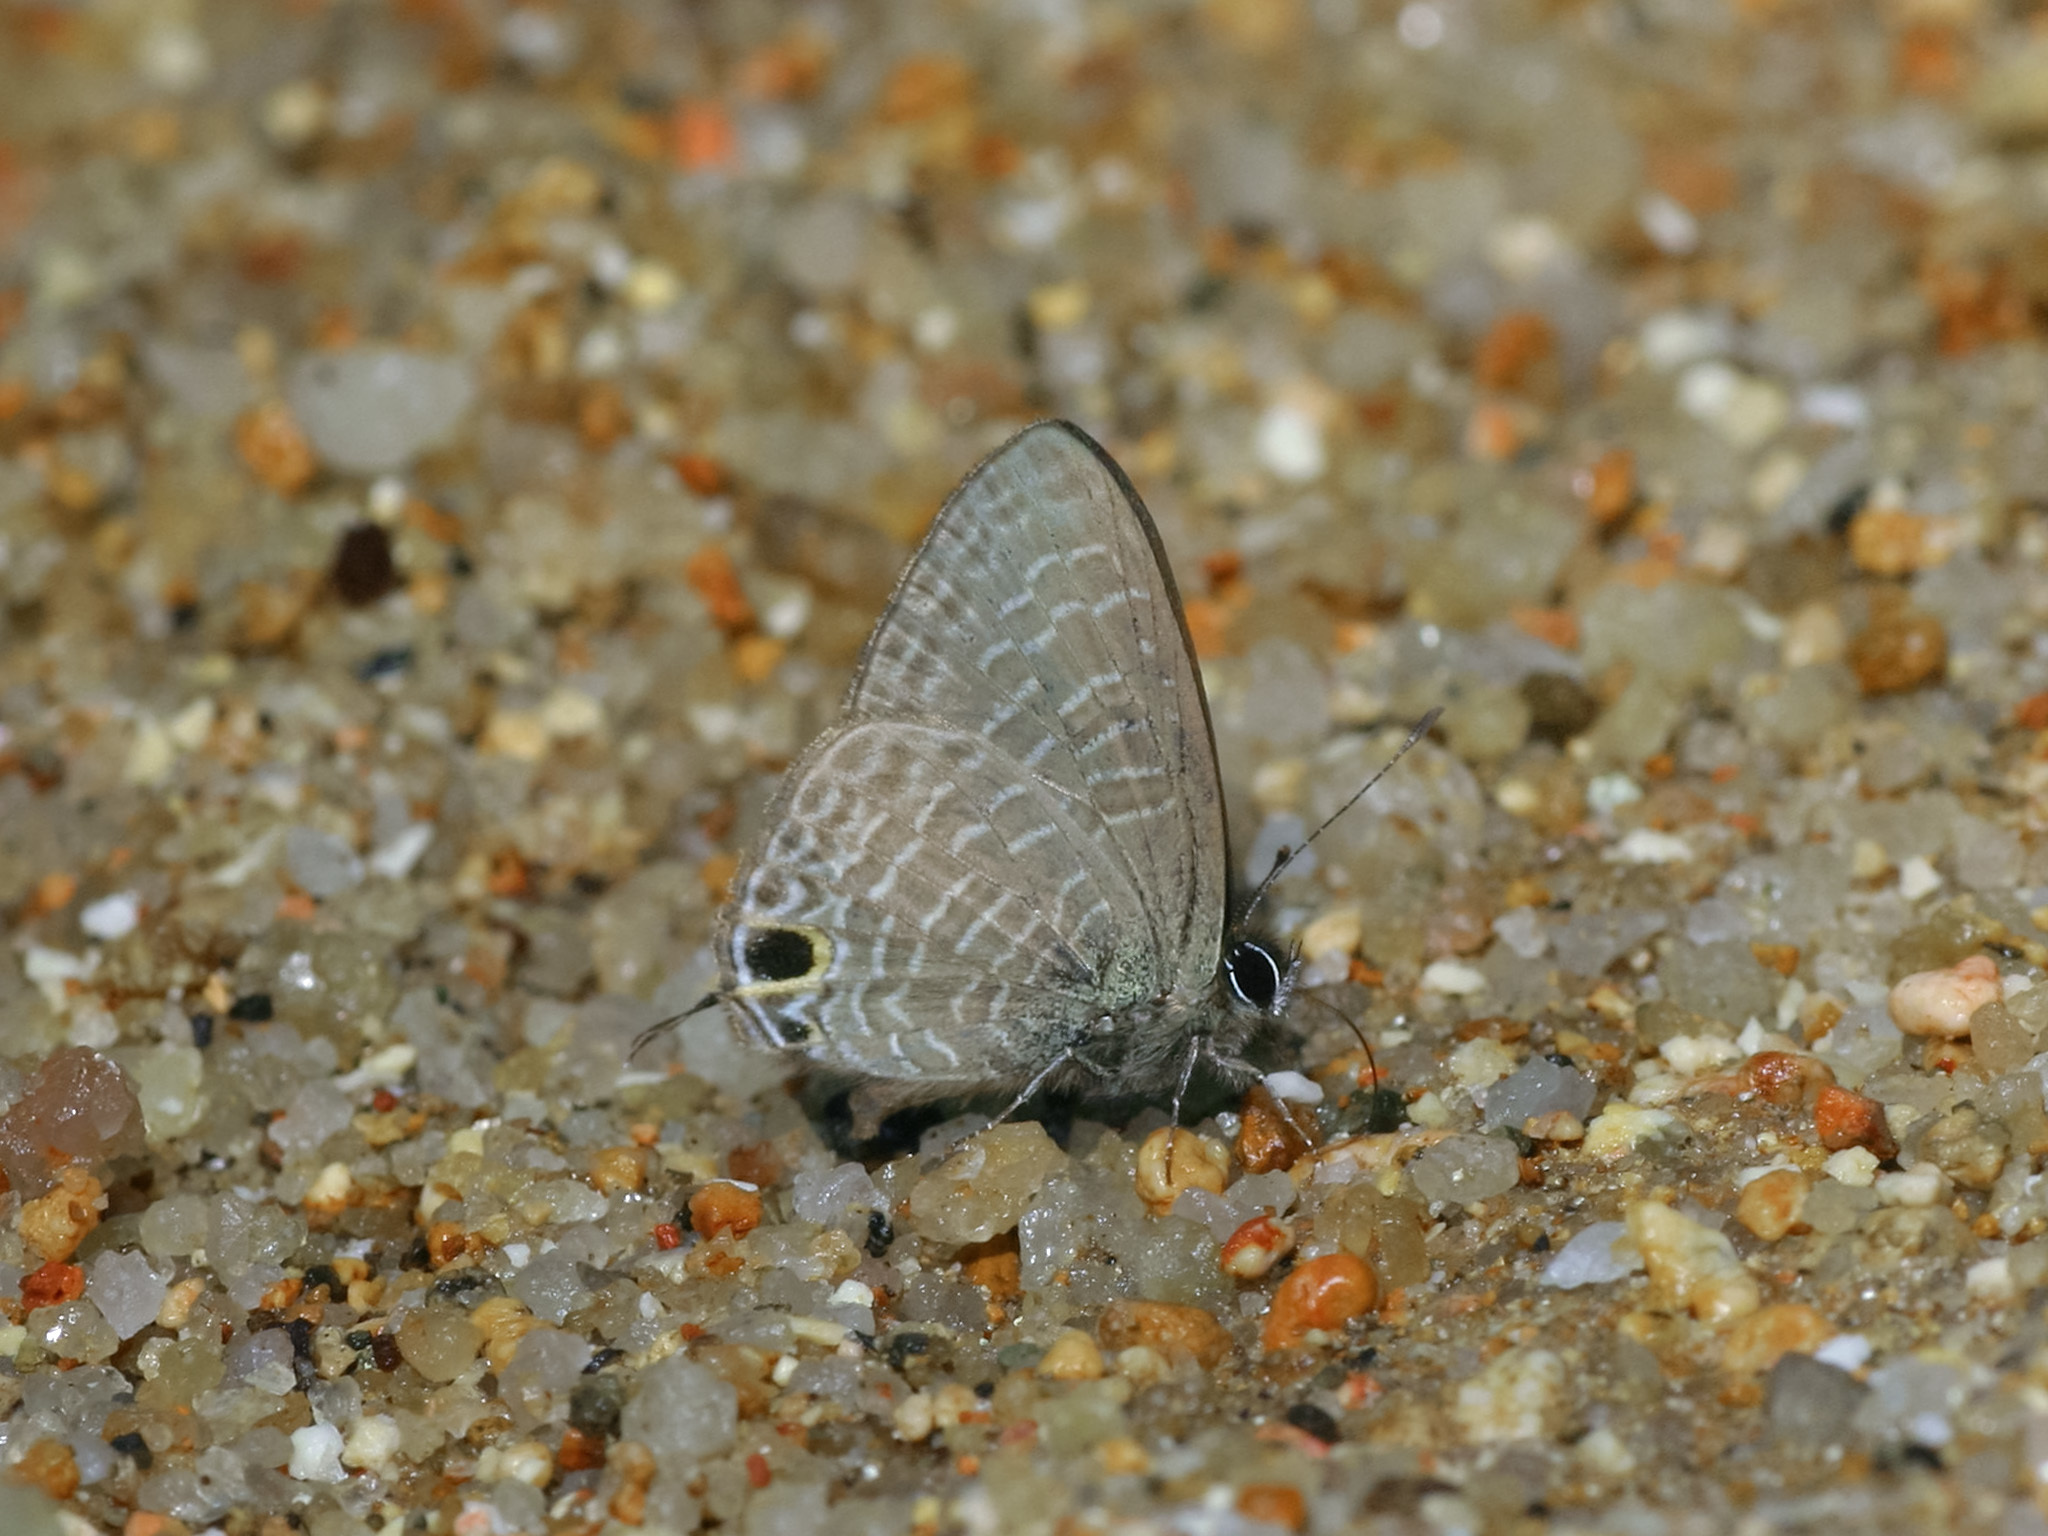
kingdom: Animalia
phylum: Arthropoda
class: Insecta
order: Lepidoptera
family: Lycaenidae
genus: Ionolyce
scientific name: Ionolyce helicon
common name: Pointed line blue
